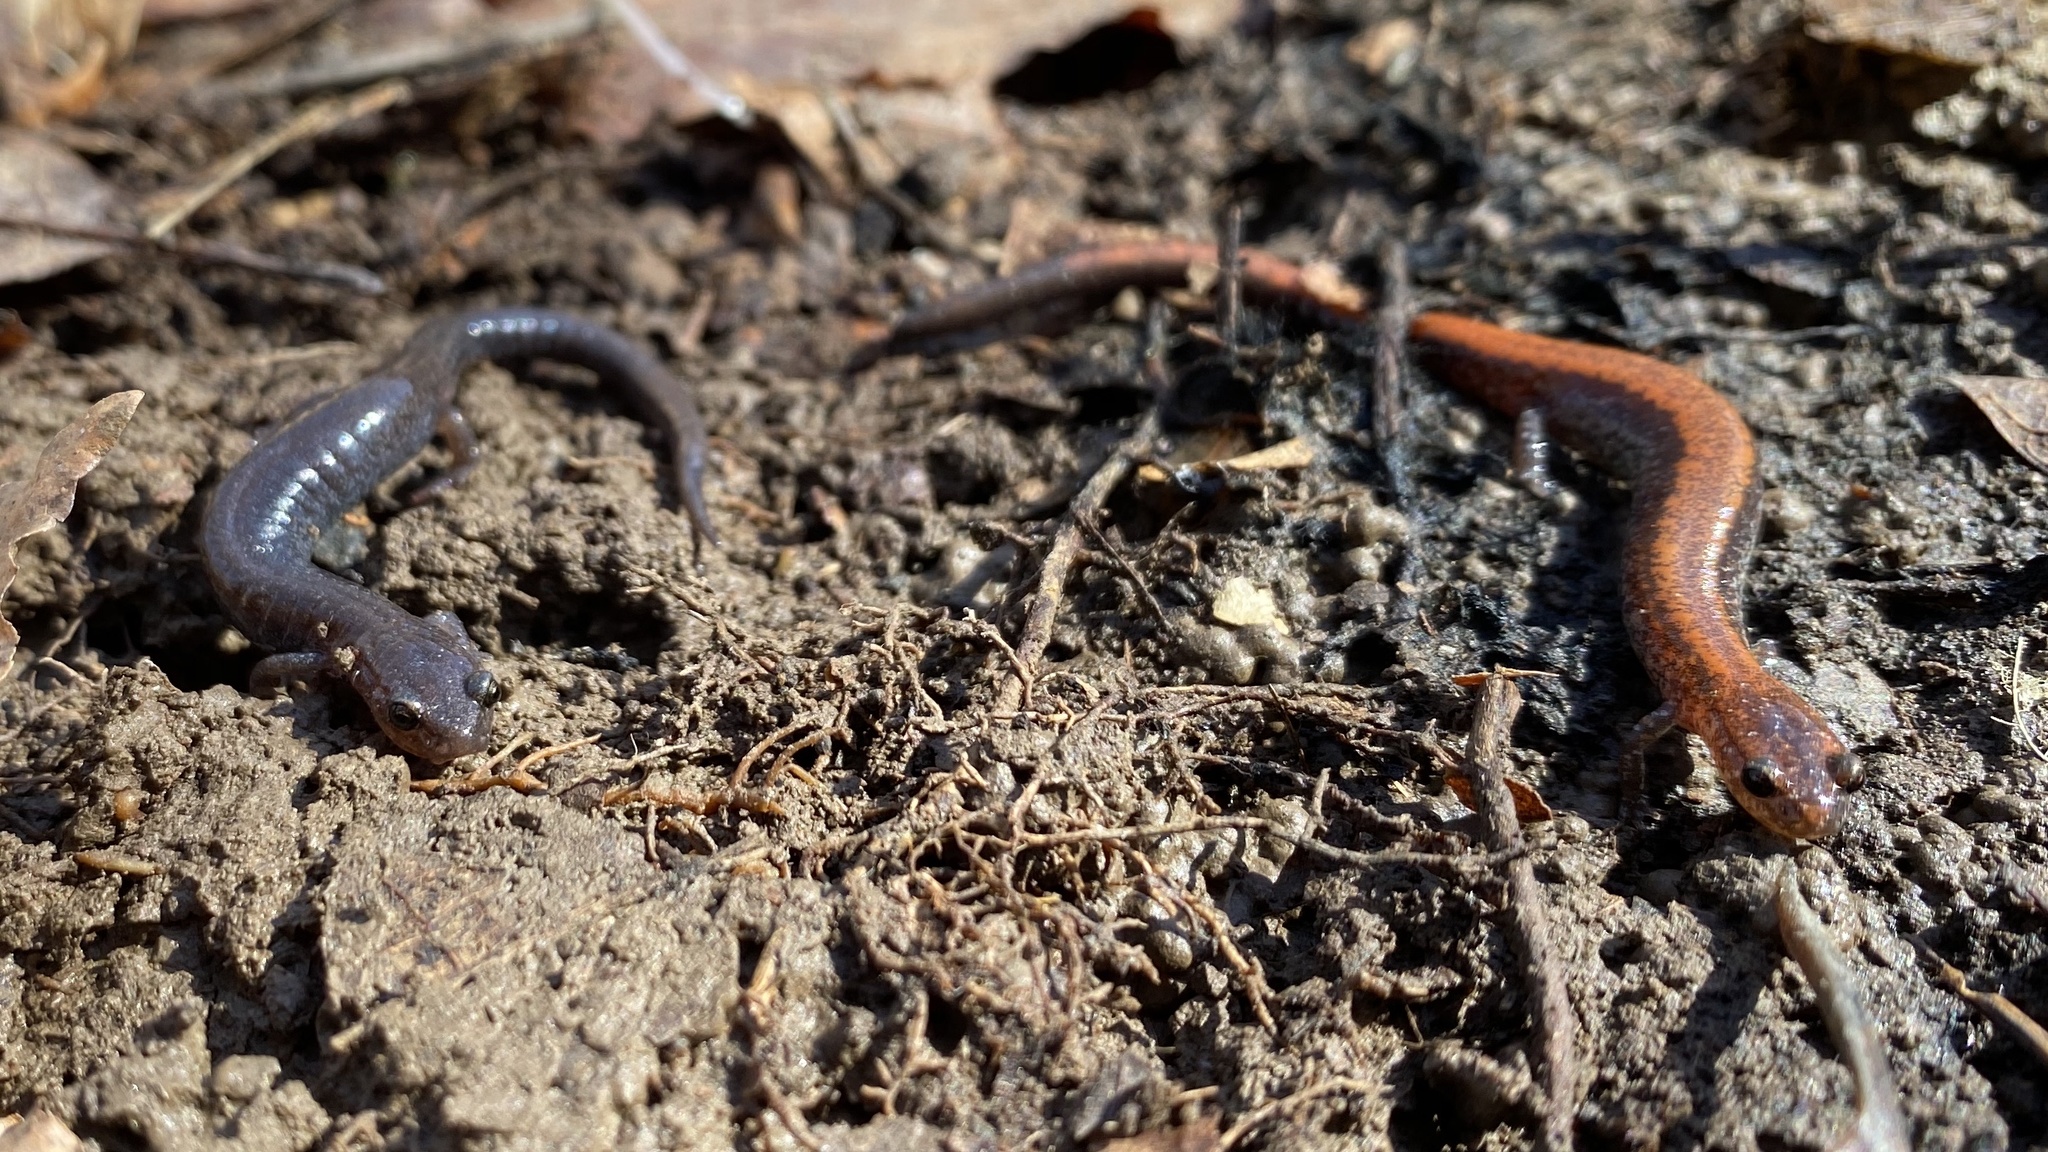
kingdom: Animalia
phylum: Chordata
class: Amphibia
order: Caudata
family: Plethodontidae
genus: Plethodon
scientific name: Plethodon cinereus
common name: Redback salamander
